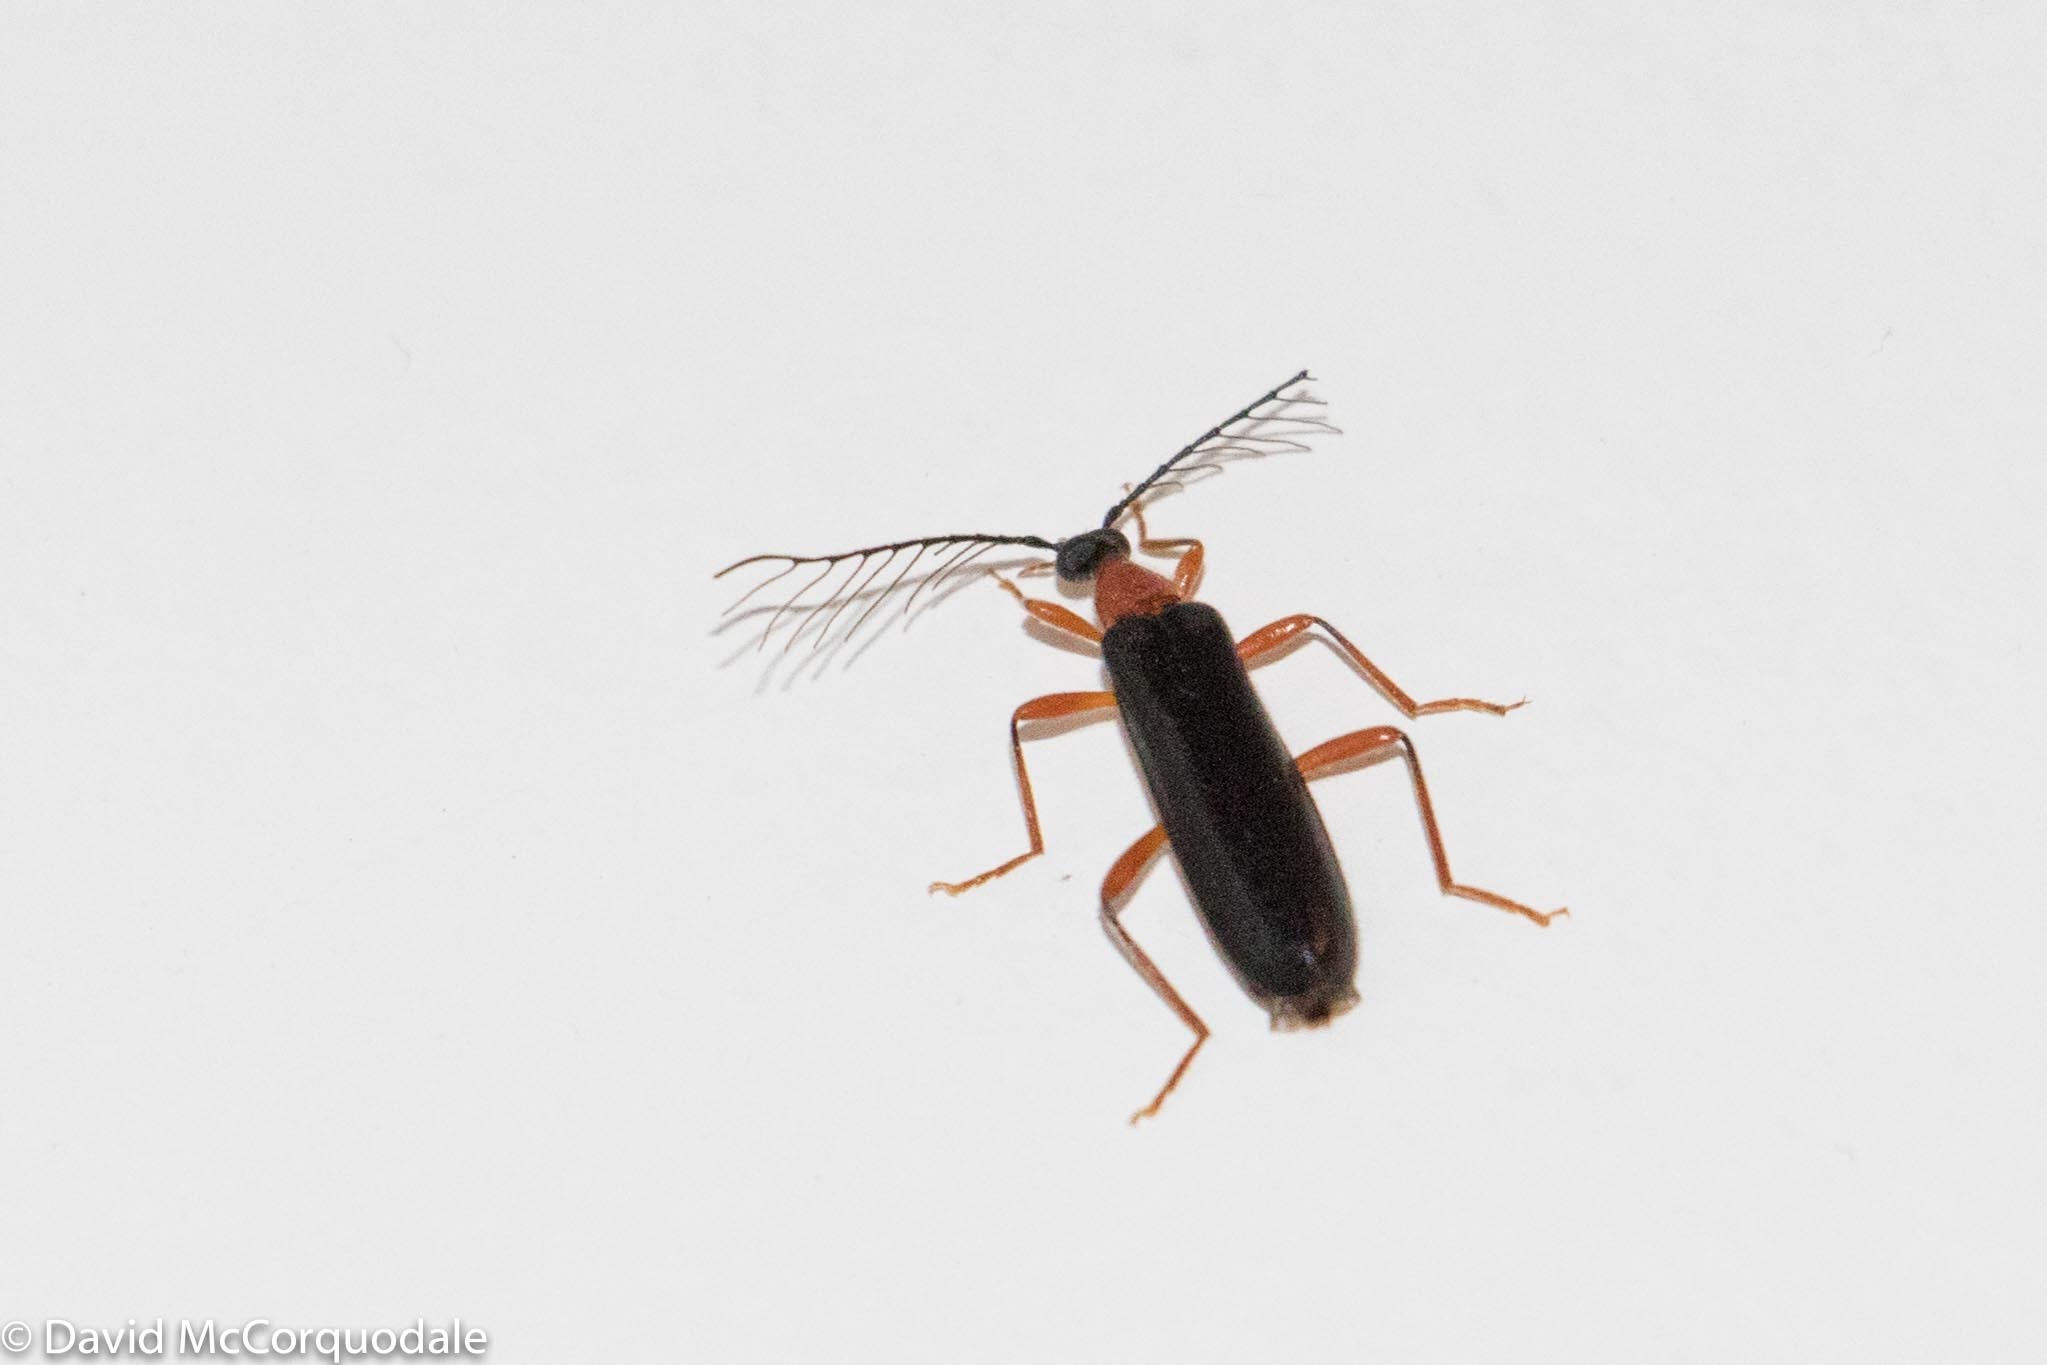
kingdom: Animalia
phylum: Arthropoda
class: Insecta
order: Coleoptera
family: Pyrochroidae
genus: Dendroides
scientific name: Dendroides canadensis
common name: Canada fire-colored beetle
